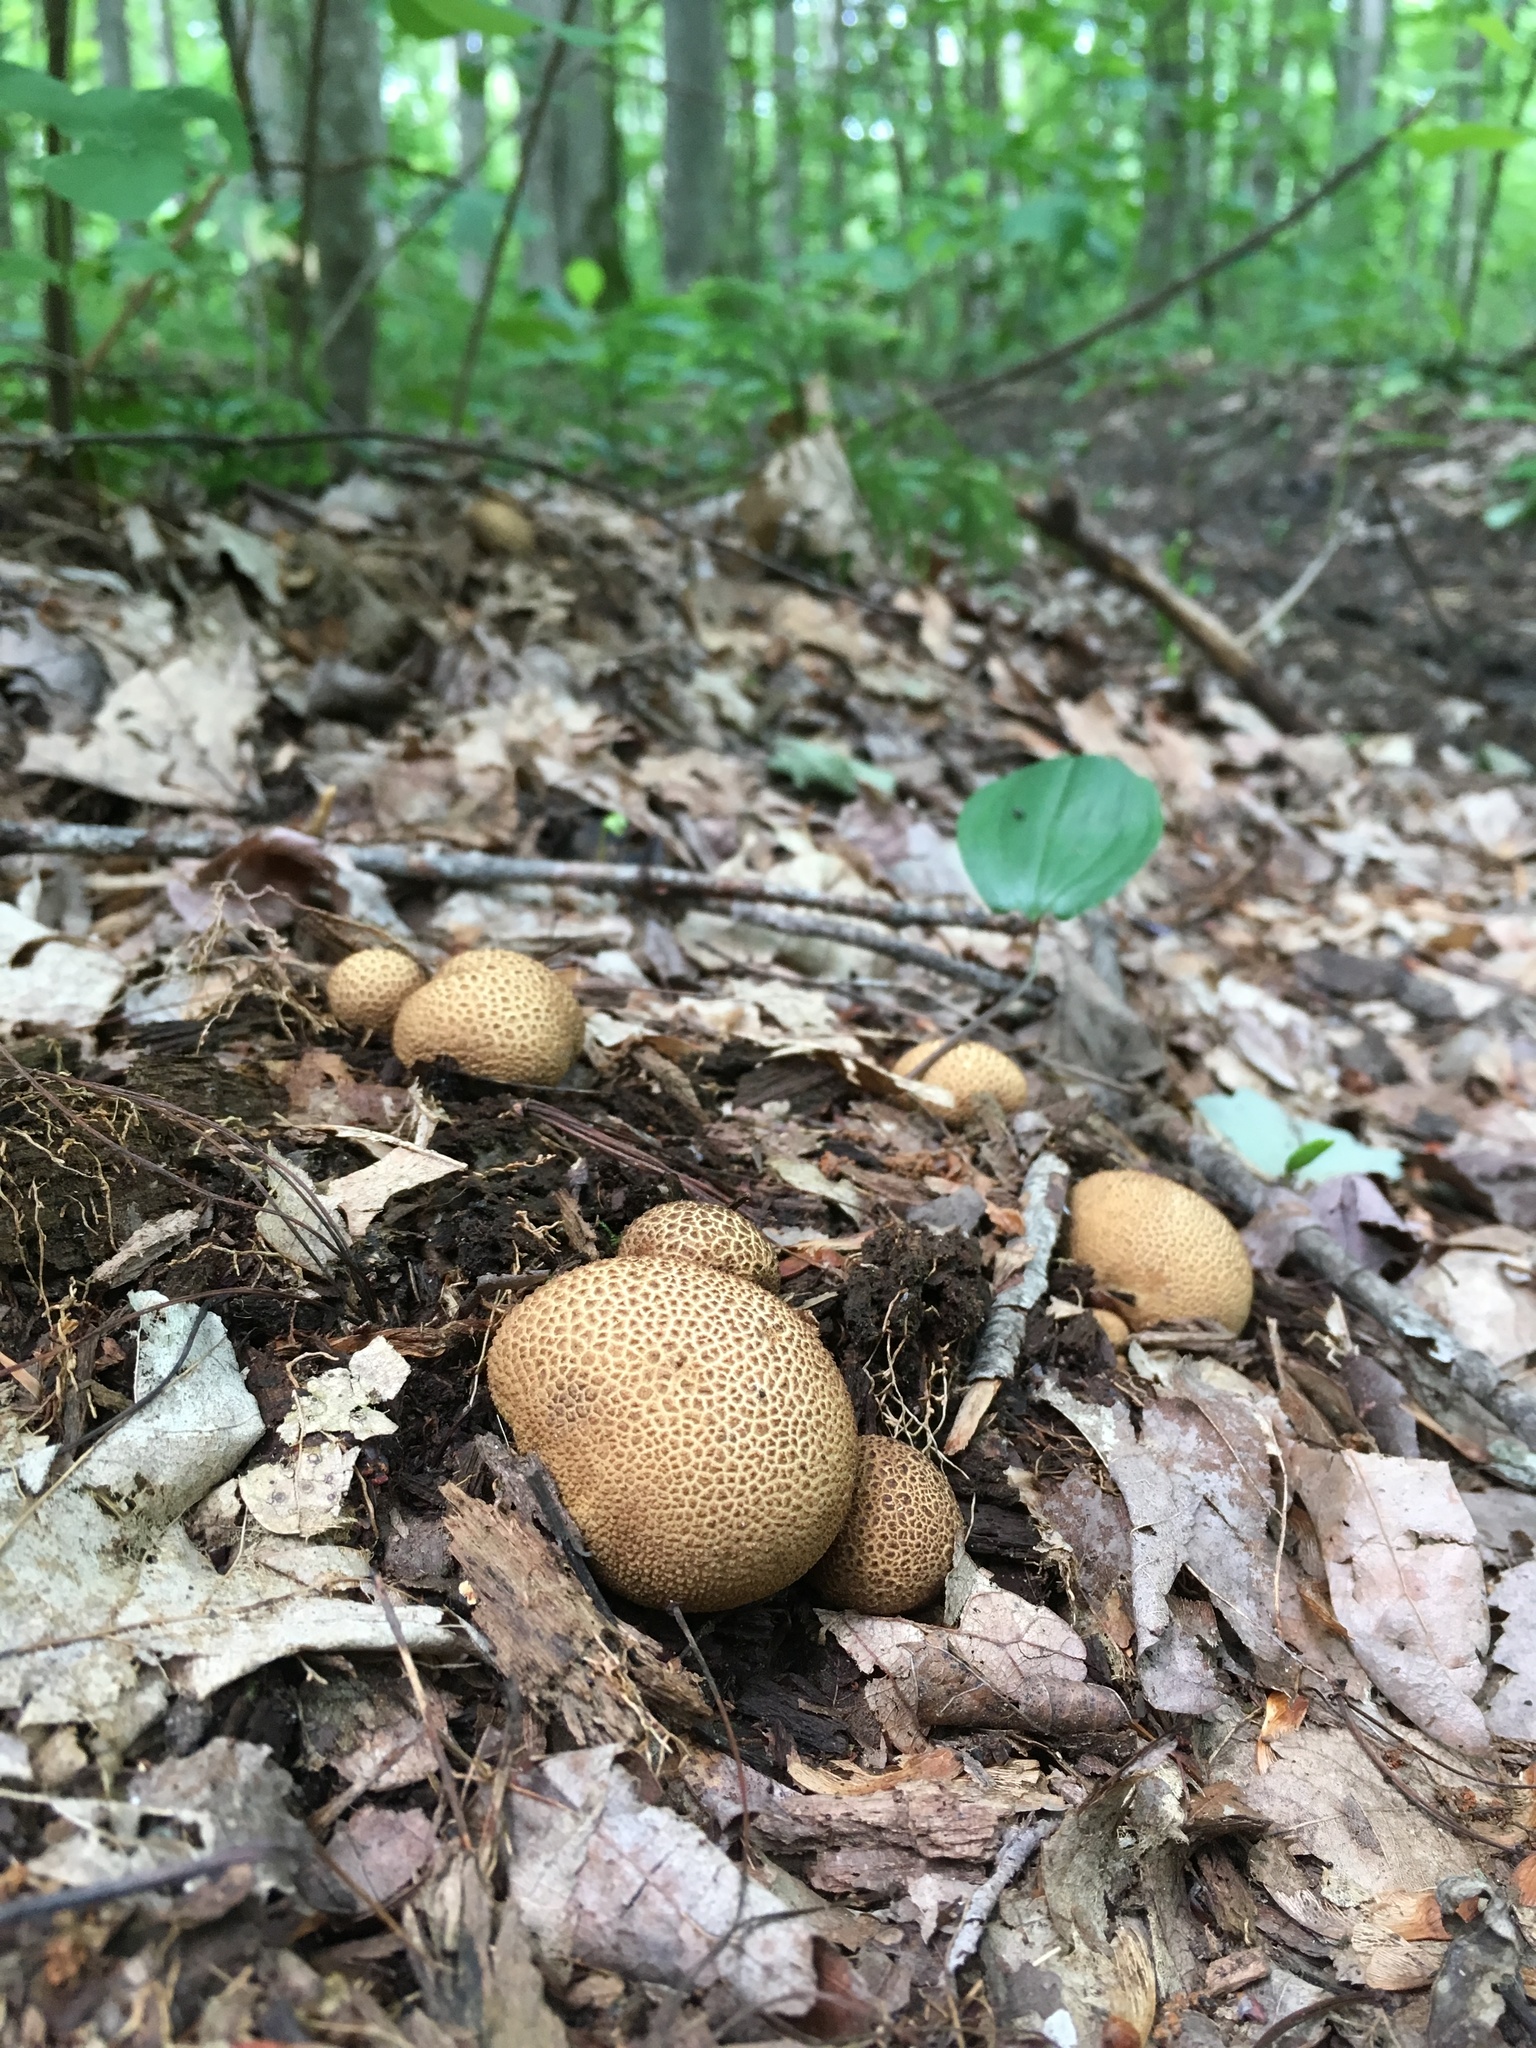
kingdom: Fungi
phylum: Basidiomycota
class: Agaricomycetes
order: Boletales
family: Sclerodermataceae
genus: Scleroderma
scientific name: Scleroderma citrinum
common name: Common earthball
